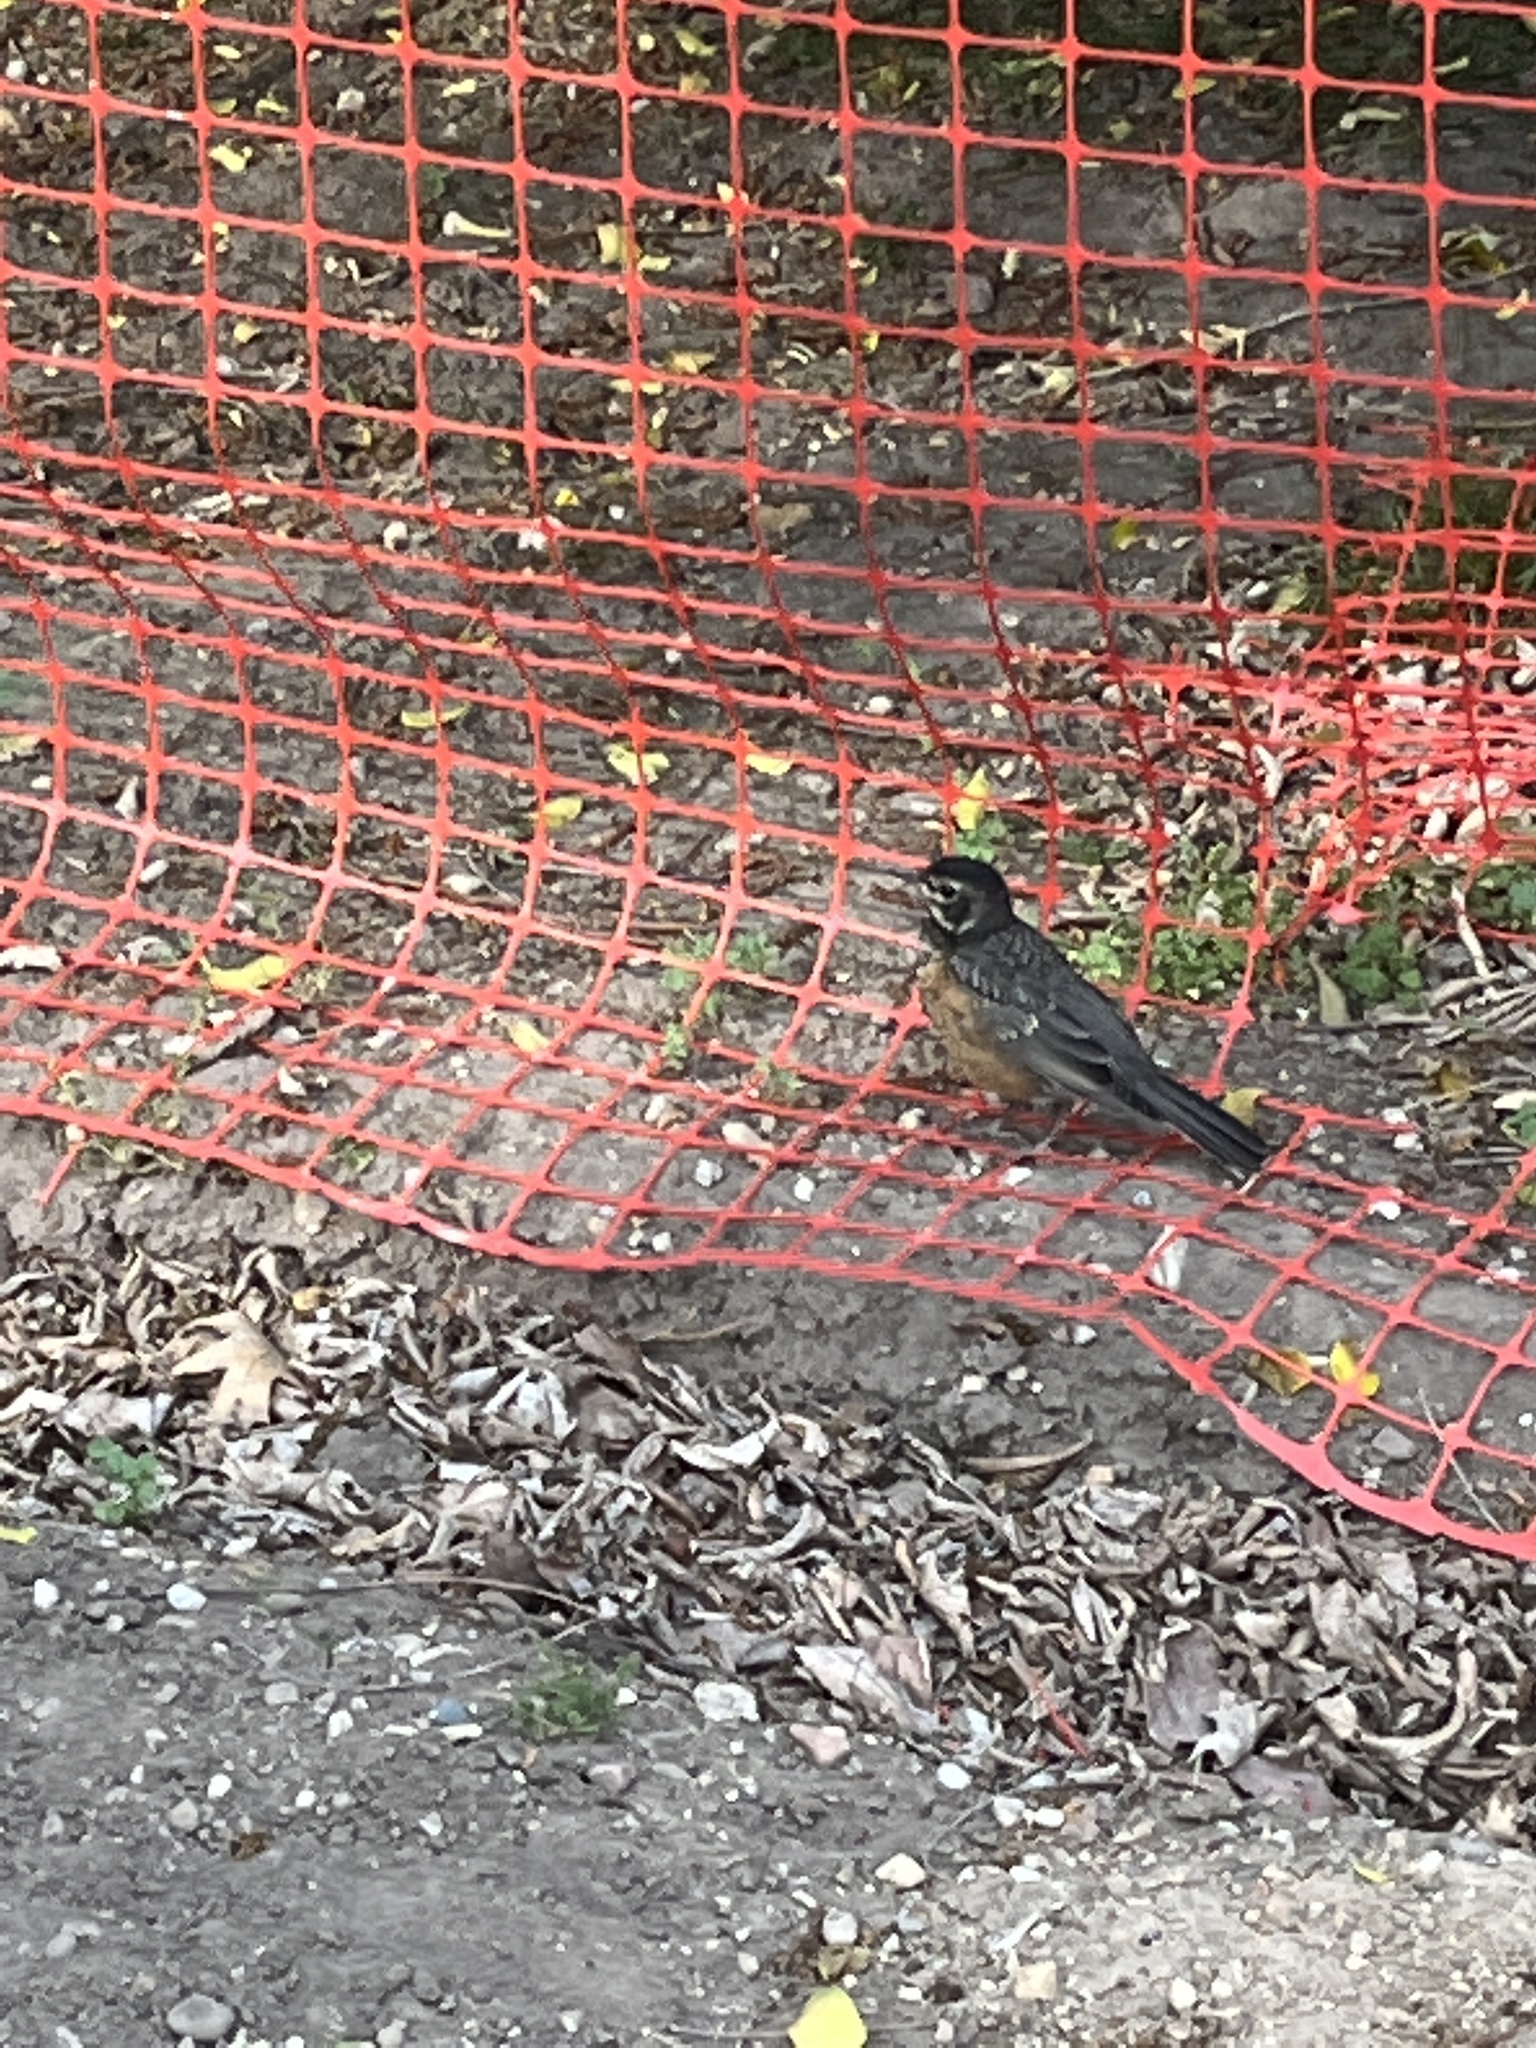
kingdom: Animalia
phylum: Chordata
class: Aves
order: Passeriformes
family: Turdidae
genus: Turdus
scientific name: Turdus migratorius
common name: American robin
